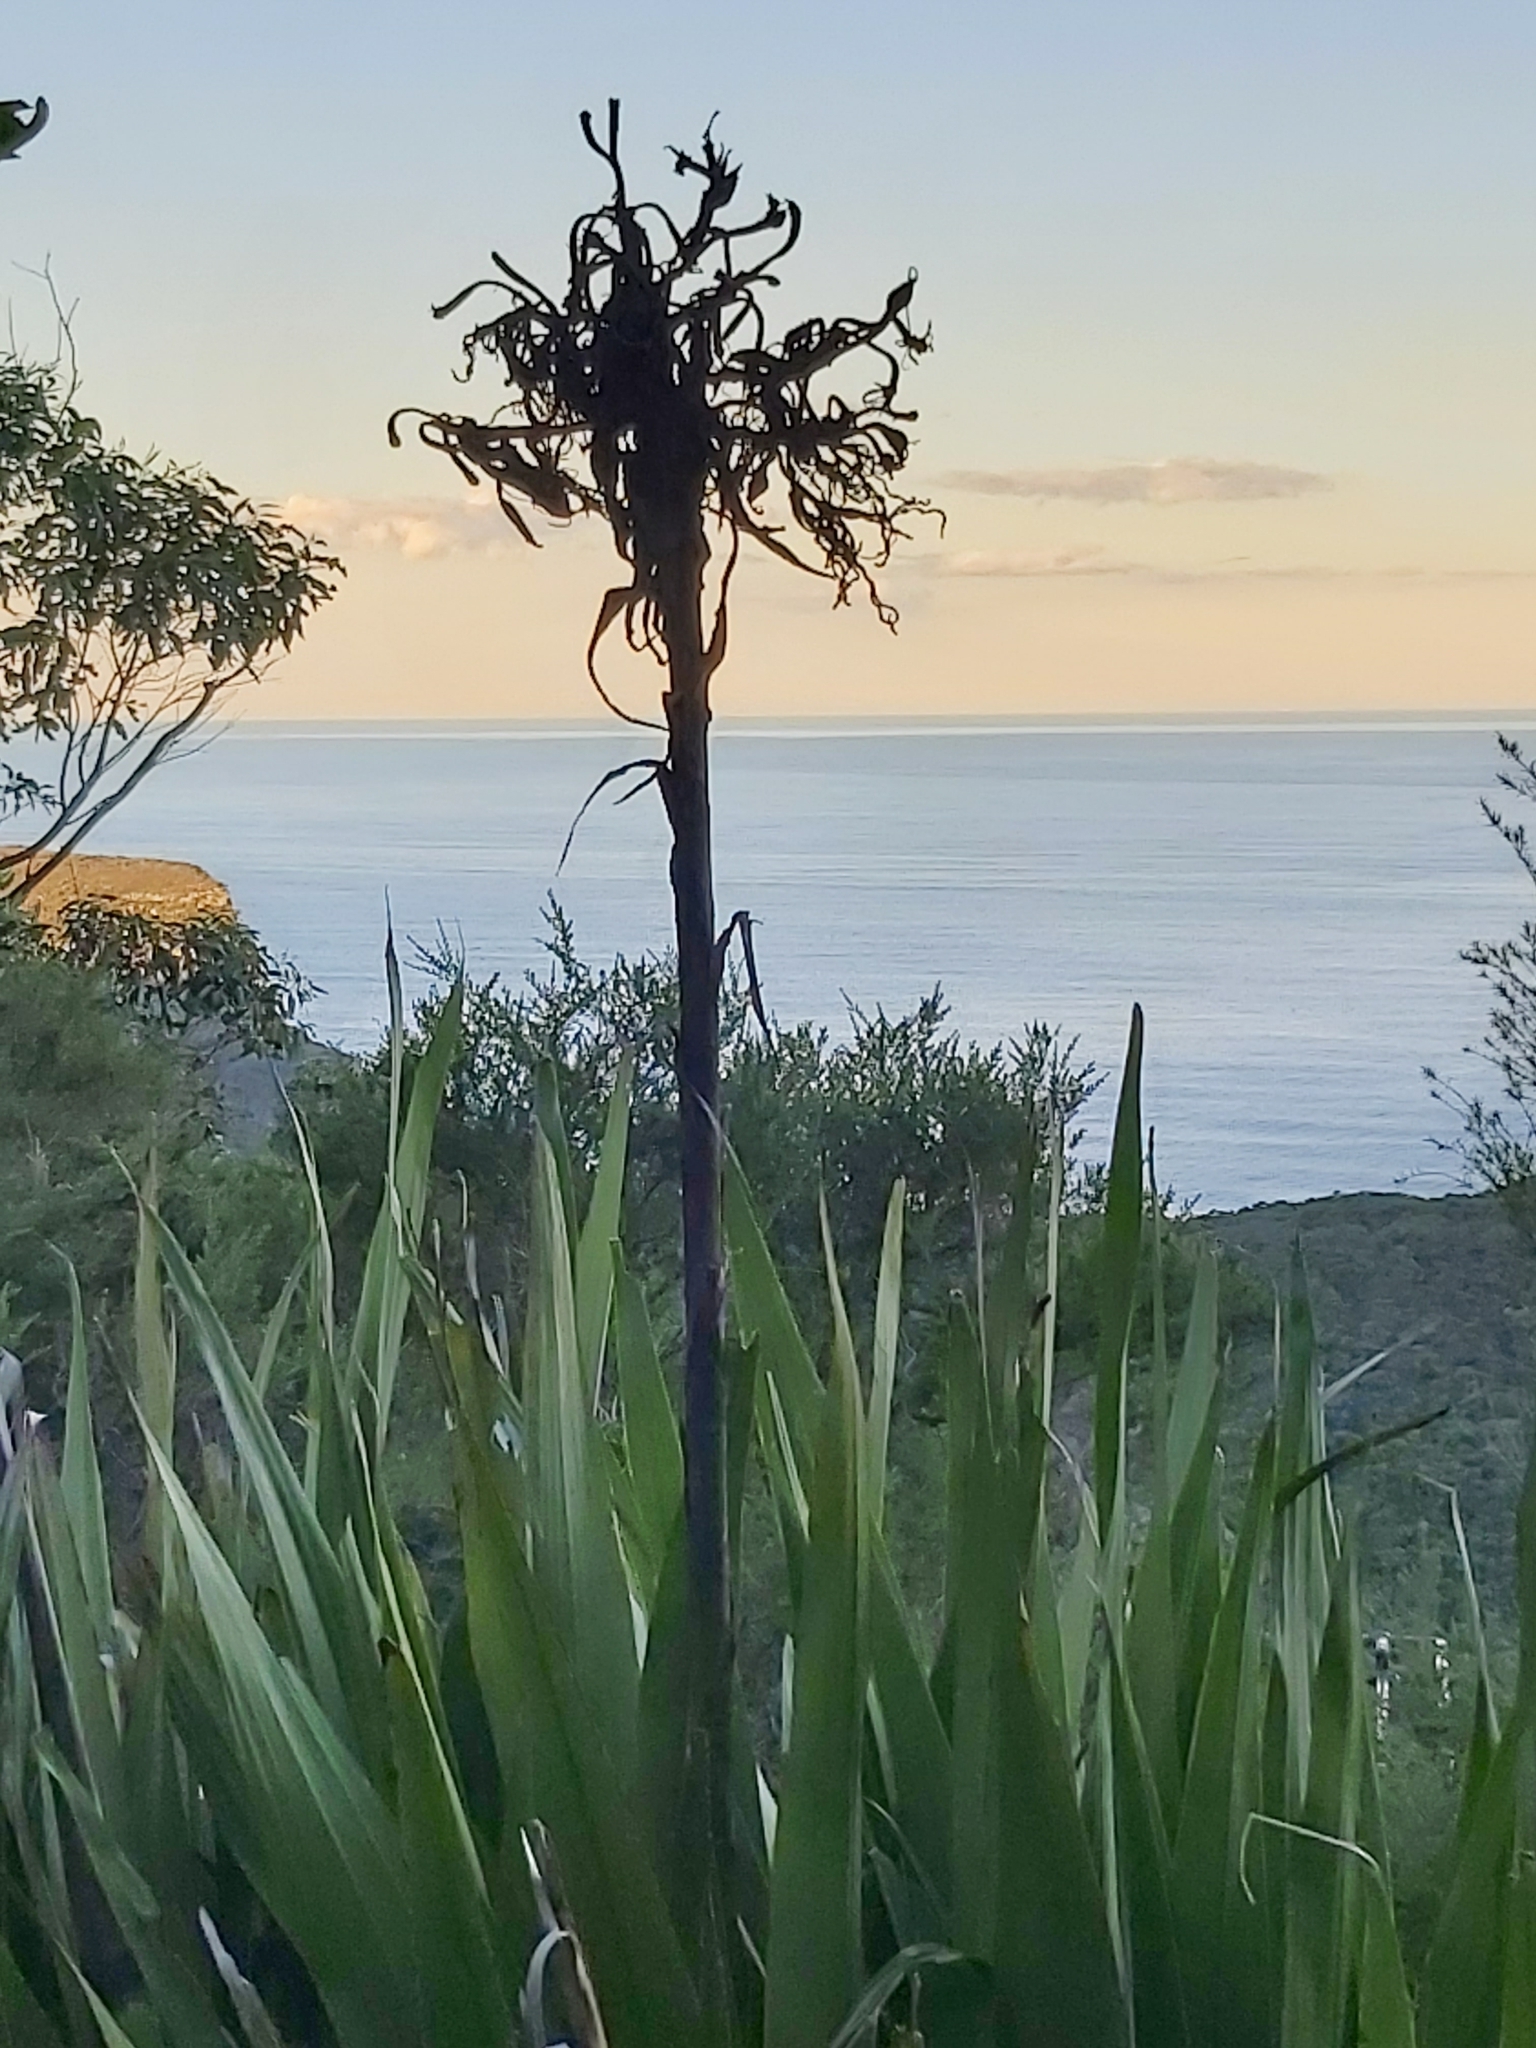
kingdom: Plantae
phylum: Tracheophyta
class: Liliopsida
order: Asparagales
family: Doryanthaceae
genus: Doryanthes
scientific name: Doryanthes excelsa
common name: Giant-lily
